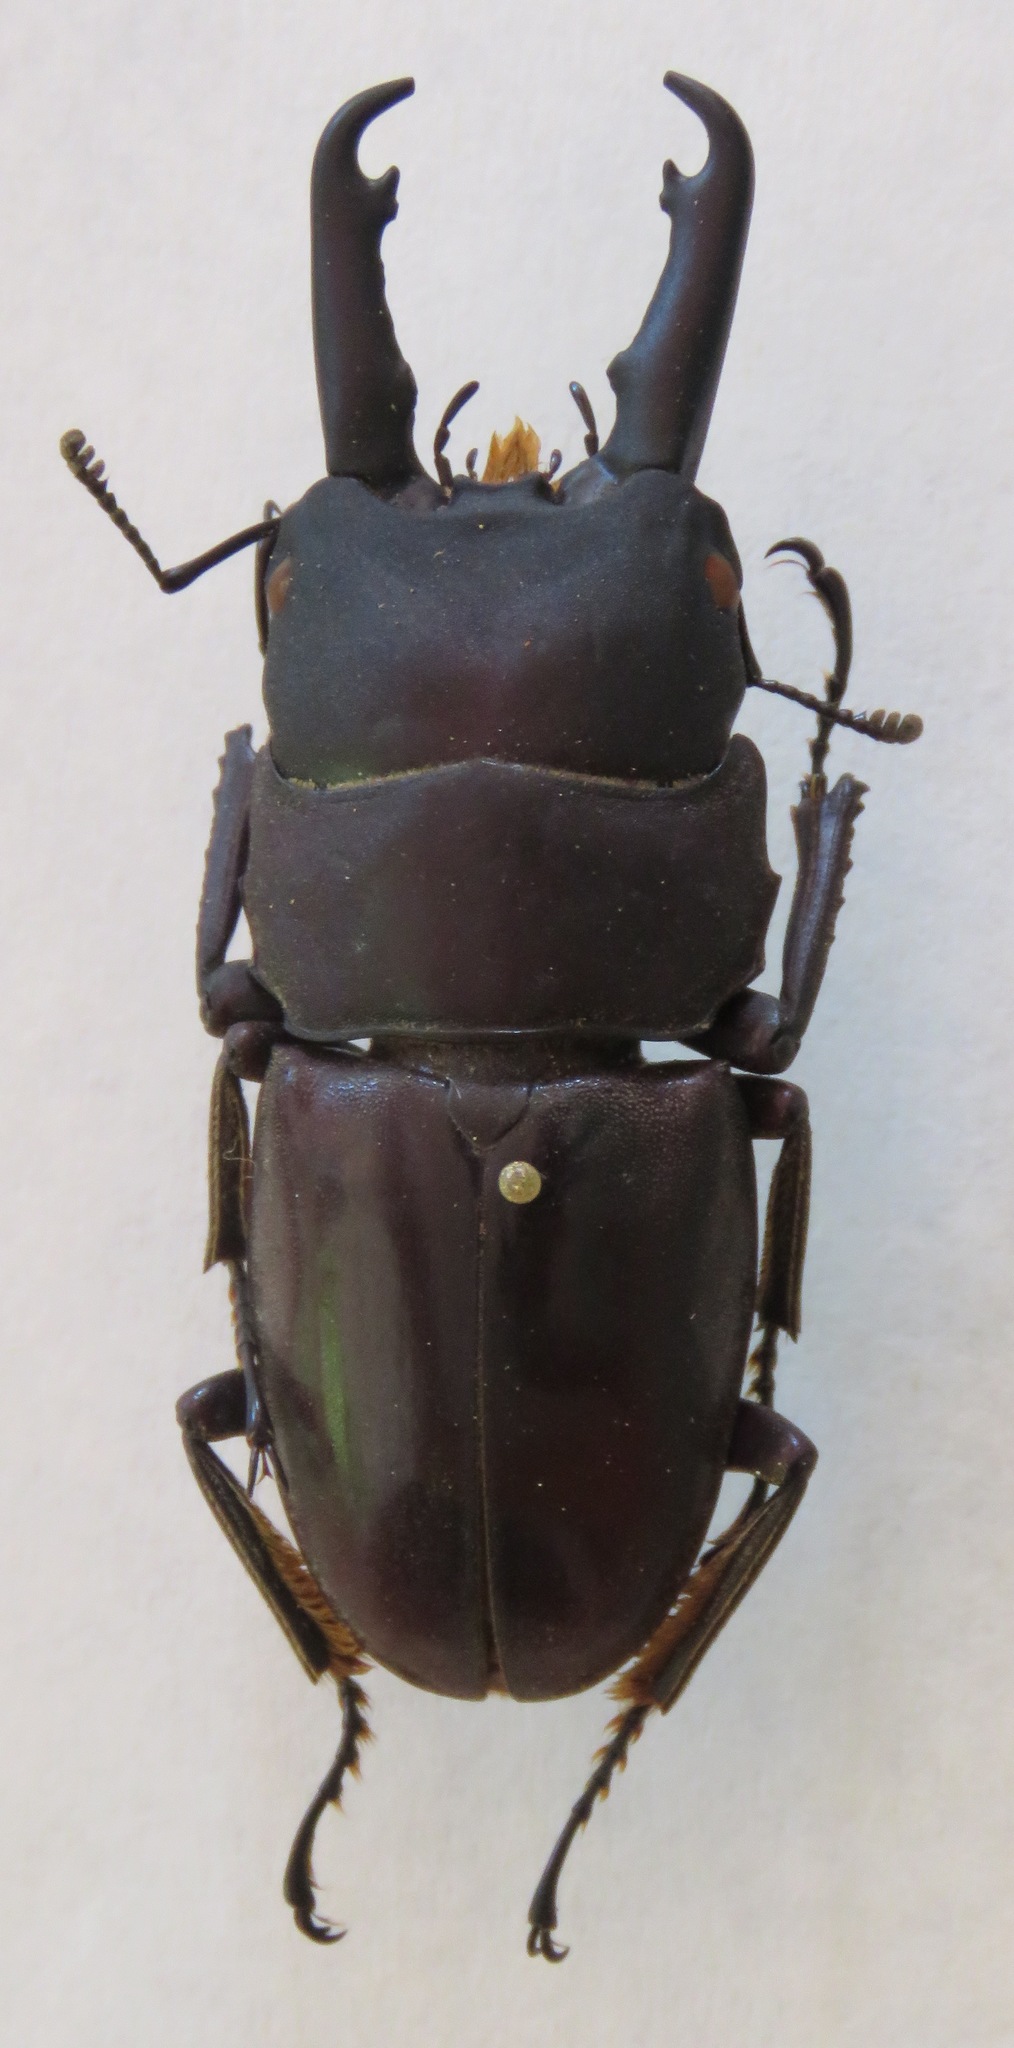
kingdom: Animalia
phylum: Arthropoda
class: Insecta
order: Coleoptera
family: Lucanidae
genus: Dorcus
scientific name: Dorcus townesi
